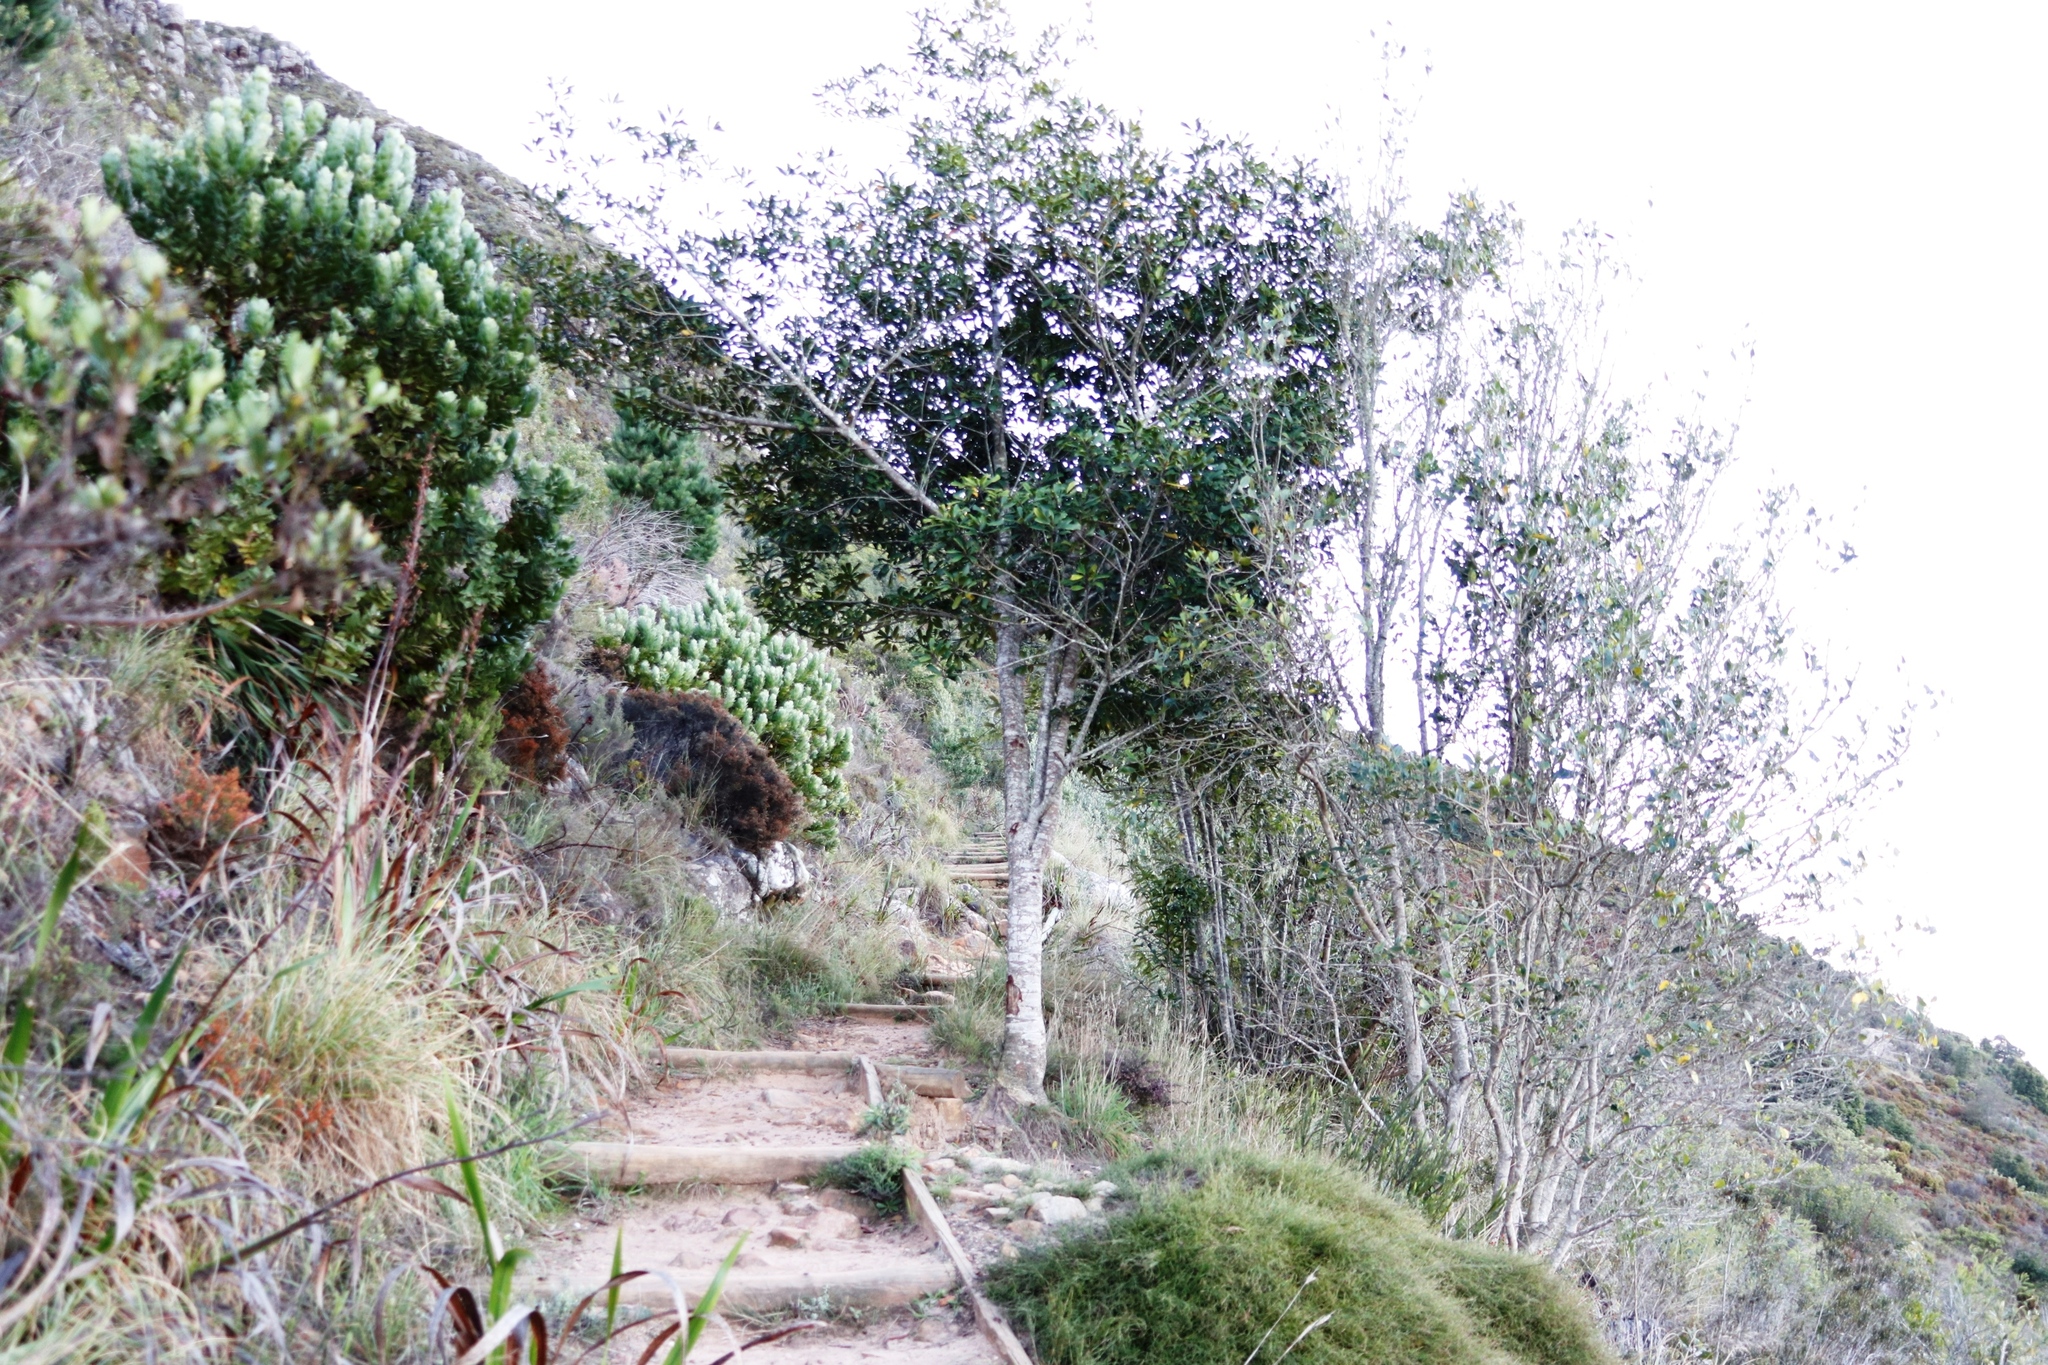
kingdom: Plantae
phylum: Tracheophyta
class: Magnoliopsida
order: Ericales
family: Primulaceae
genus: Myrsine
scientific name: Myrsine melanophloeos
